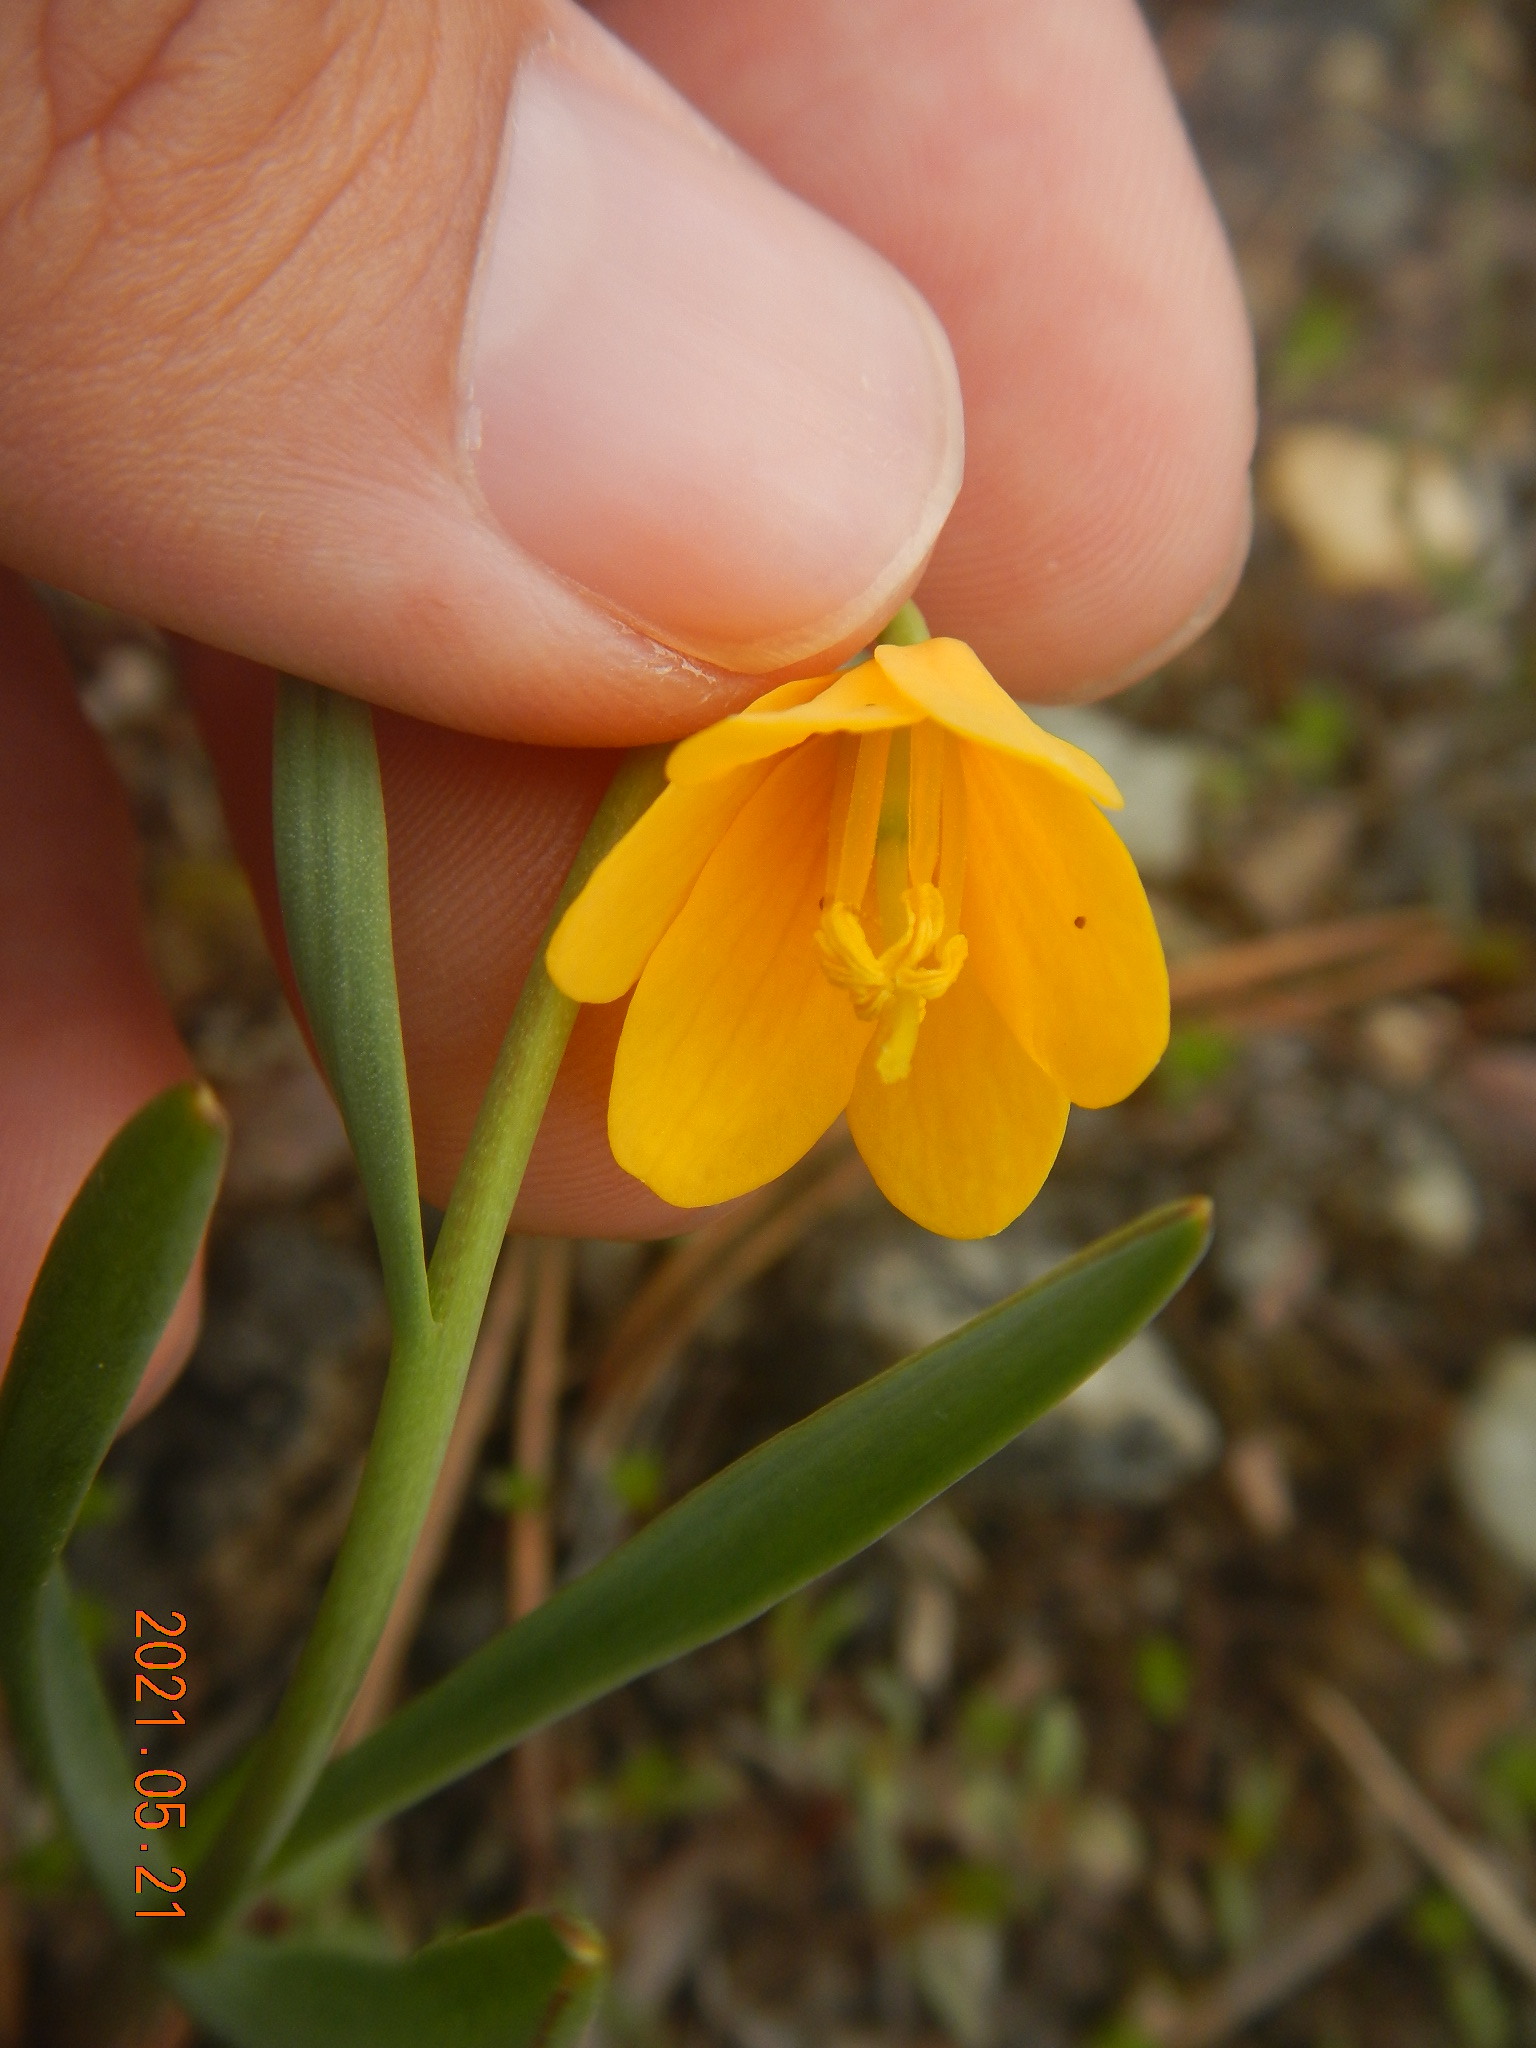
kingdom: Plantae
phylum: Tracheophyta
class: Liliopsida
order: Liliales
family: Liliaceae
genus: Fritillaria
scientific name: Fritillaria pudica
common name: Yellow fritillary
